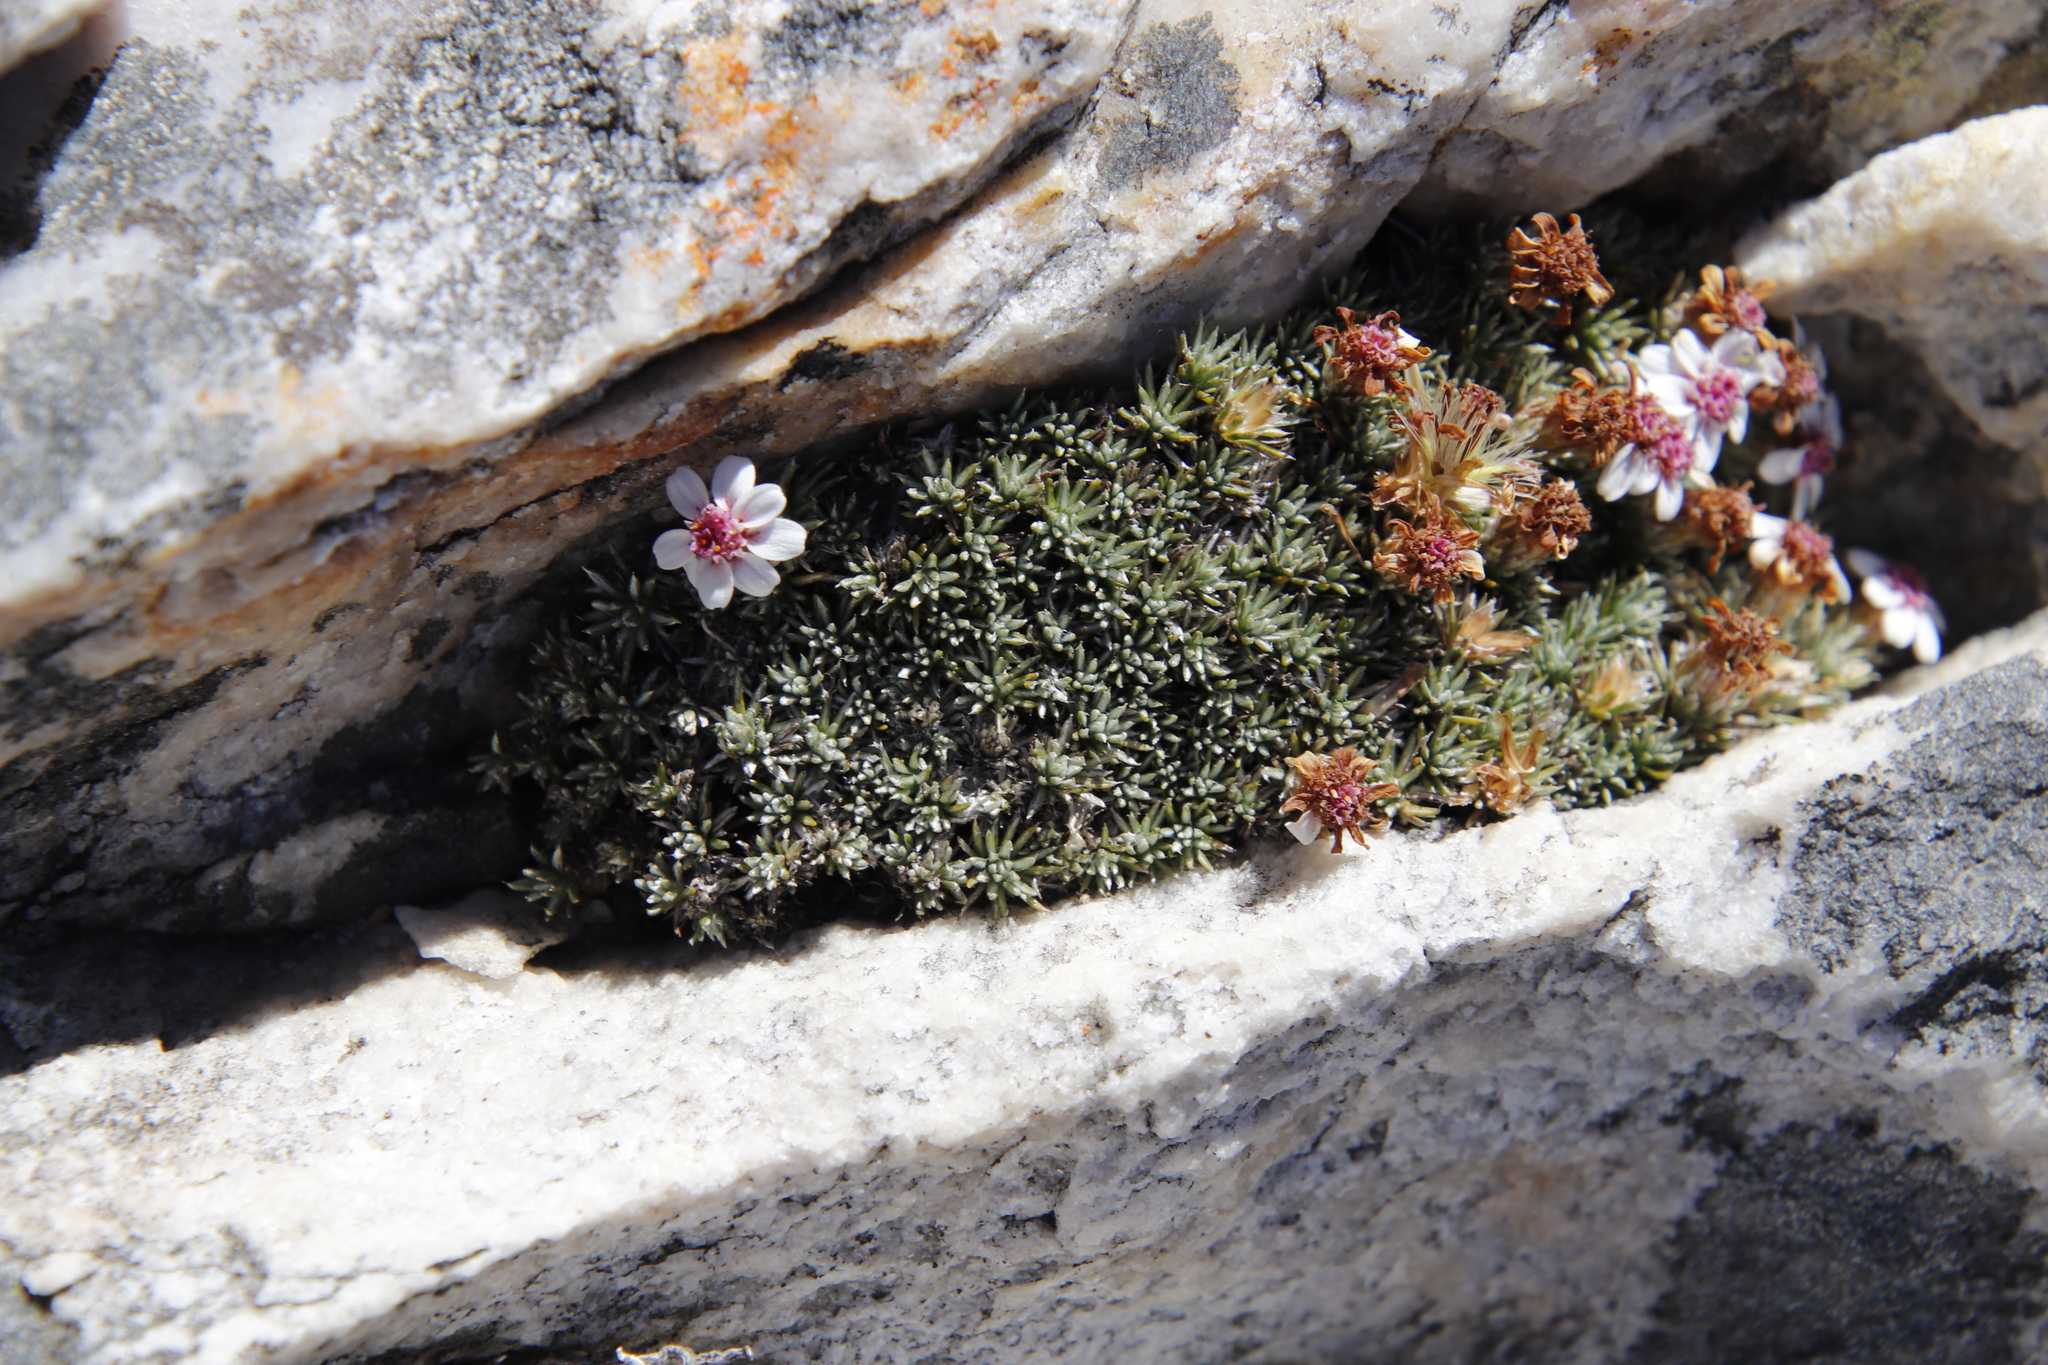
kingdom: Plantae
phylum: Tracheophyta
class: Magnoliopsida
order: Asterales
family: Asteraceae
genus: Muscosomorphe
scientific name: Muscosomorphe aretioides
